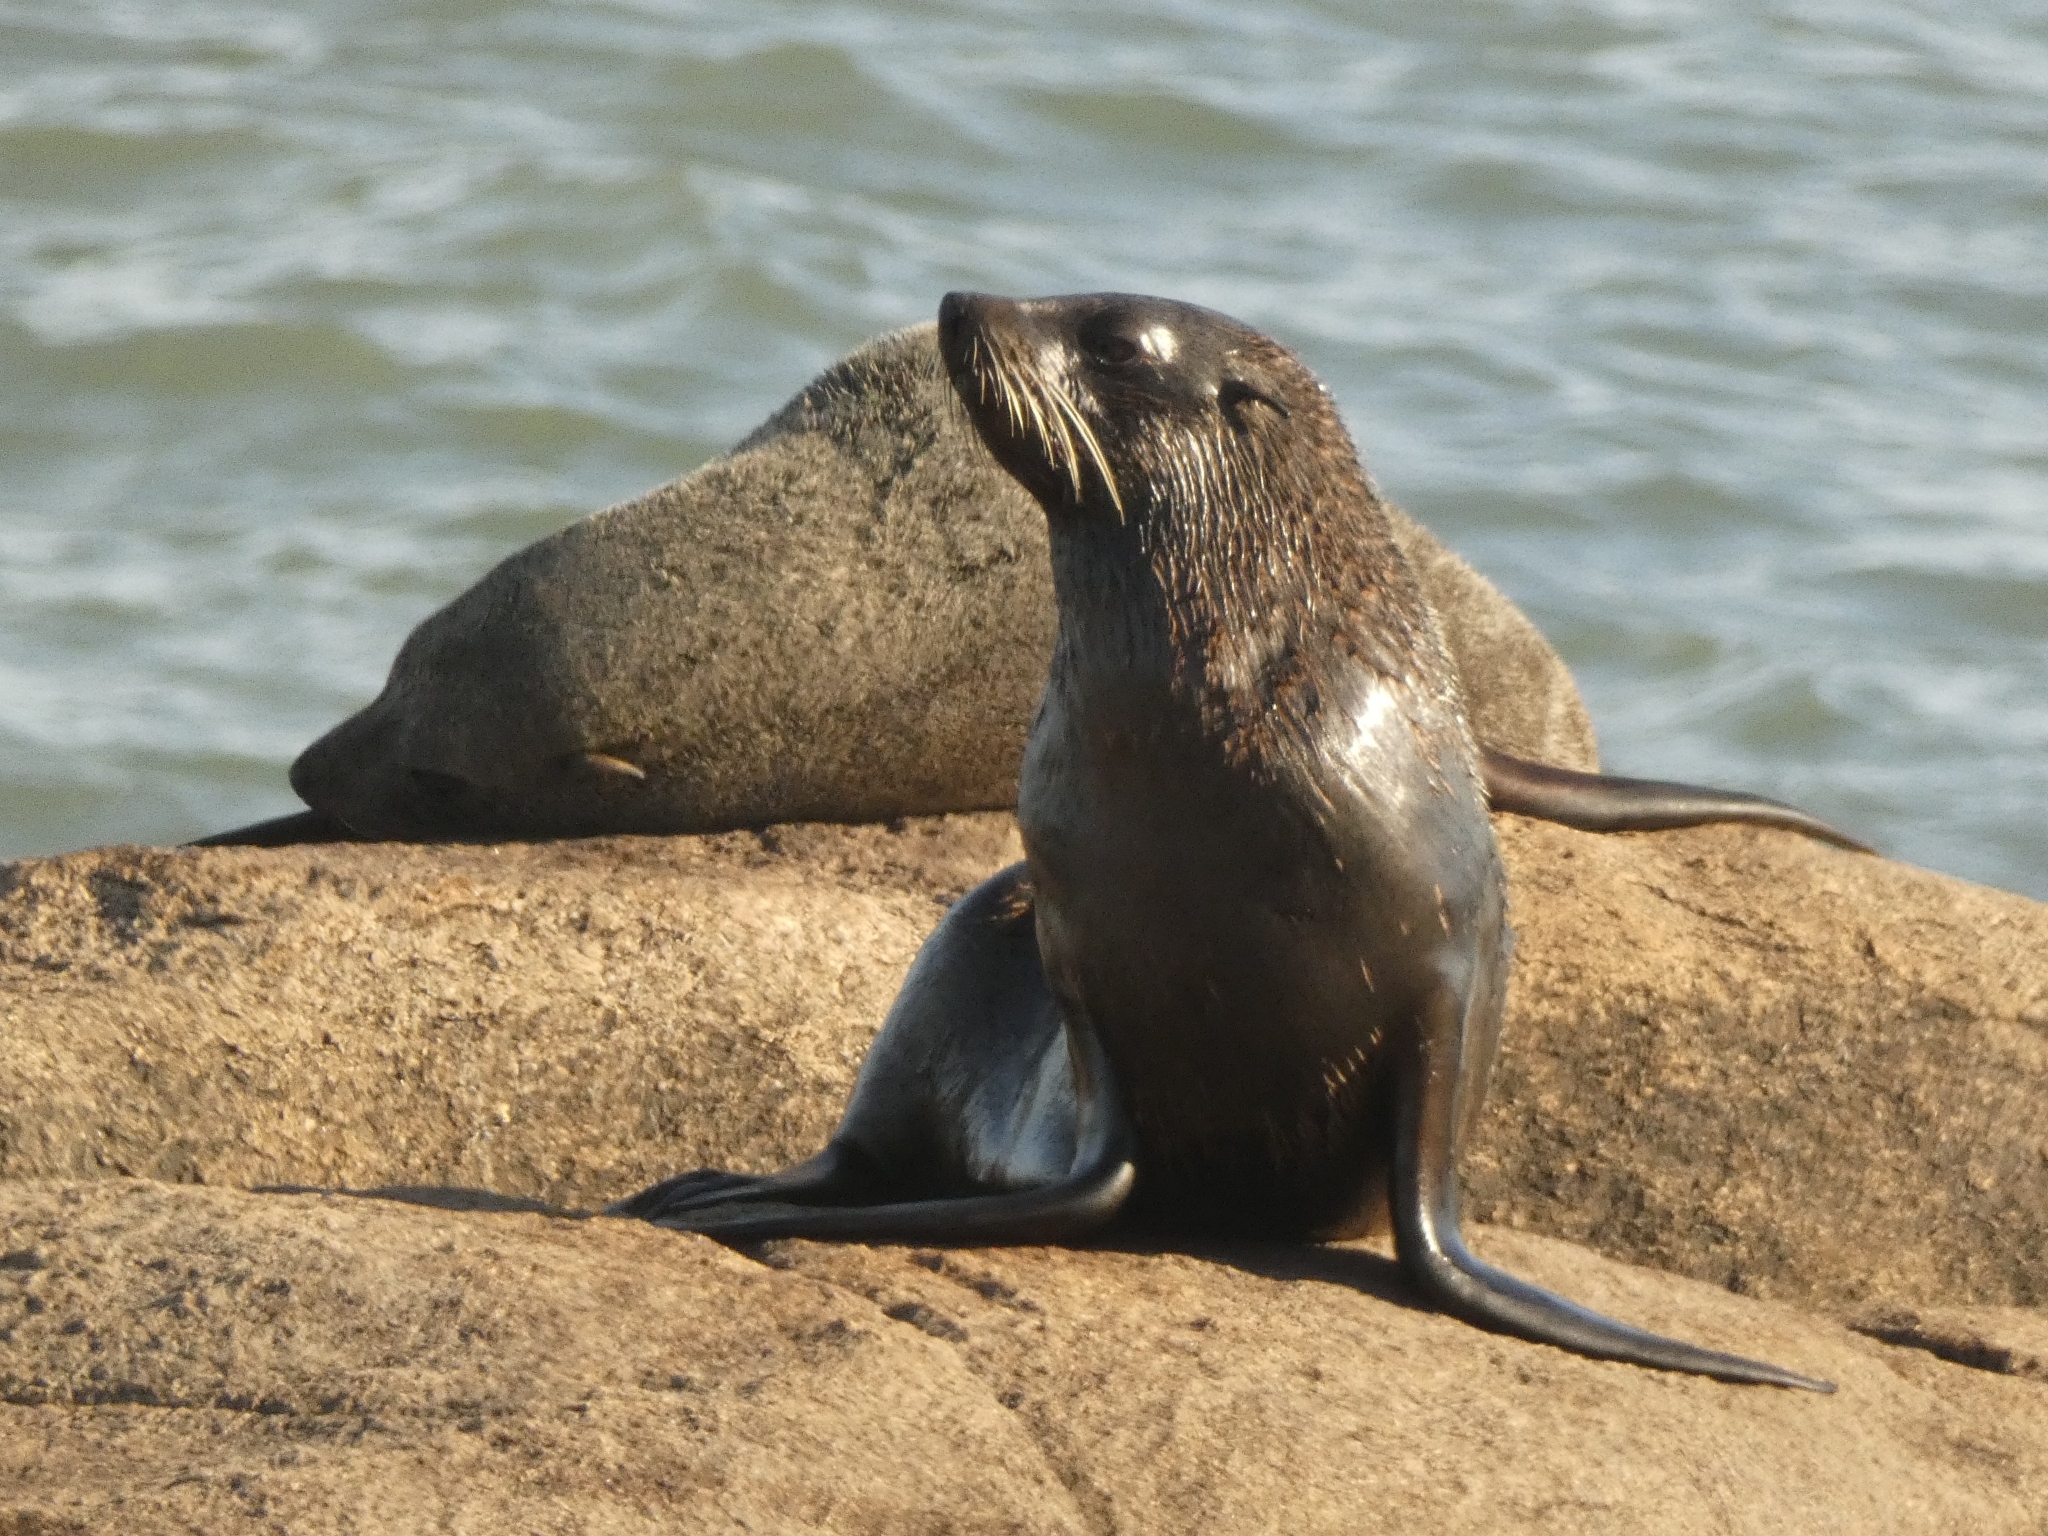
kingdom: Animalia
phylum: Chordata
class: Mammalia
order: Carnivora
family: Otariidae
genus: Arctocephalus
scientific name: Arctocephalus australis
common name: South american fur seal
